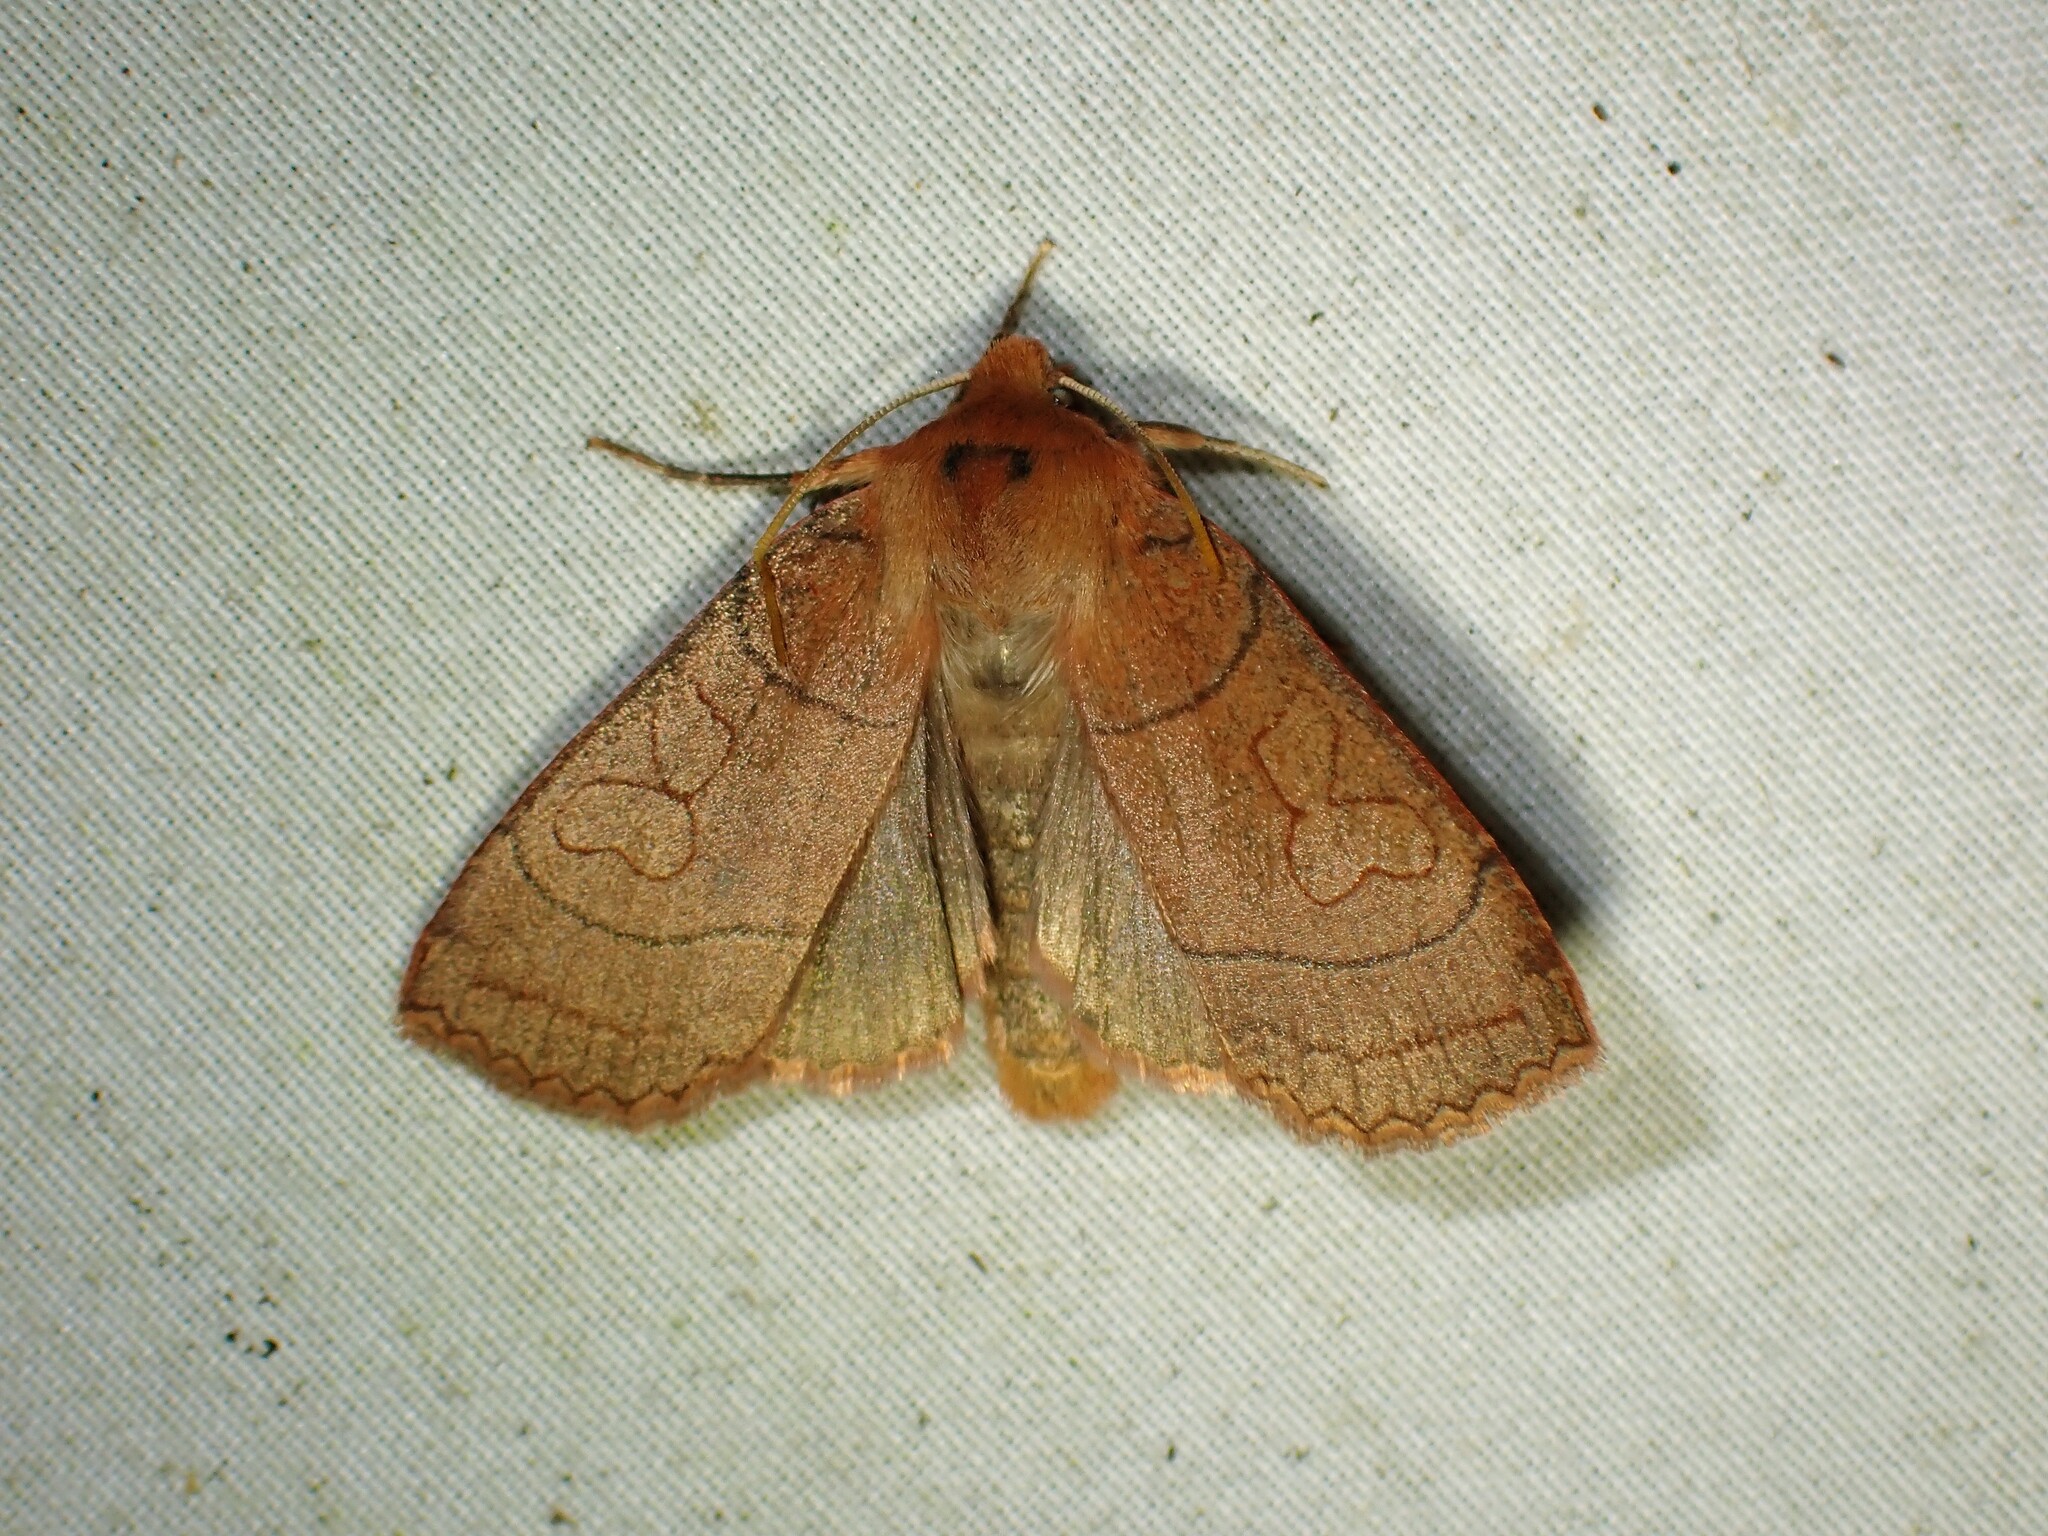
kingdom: Animalia
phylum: Arthropoda
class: Insecta
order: Lepidoptera
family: Noctuidae
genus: Metaxaglaea
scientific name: Metaxaglaea inulta
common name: Unsated sallow
